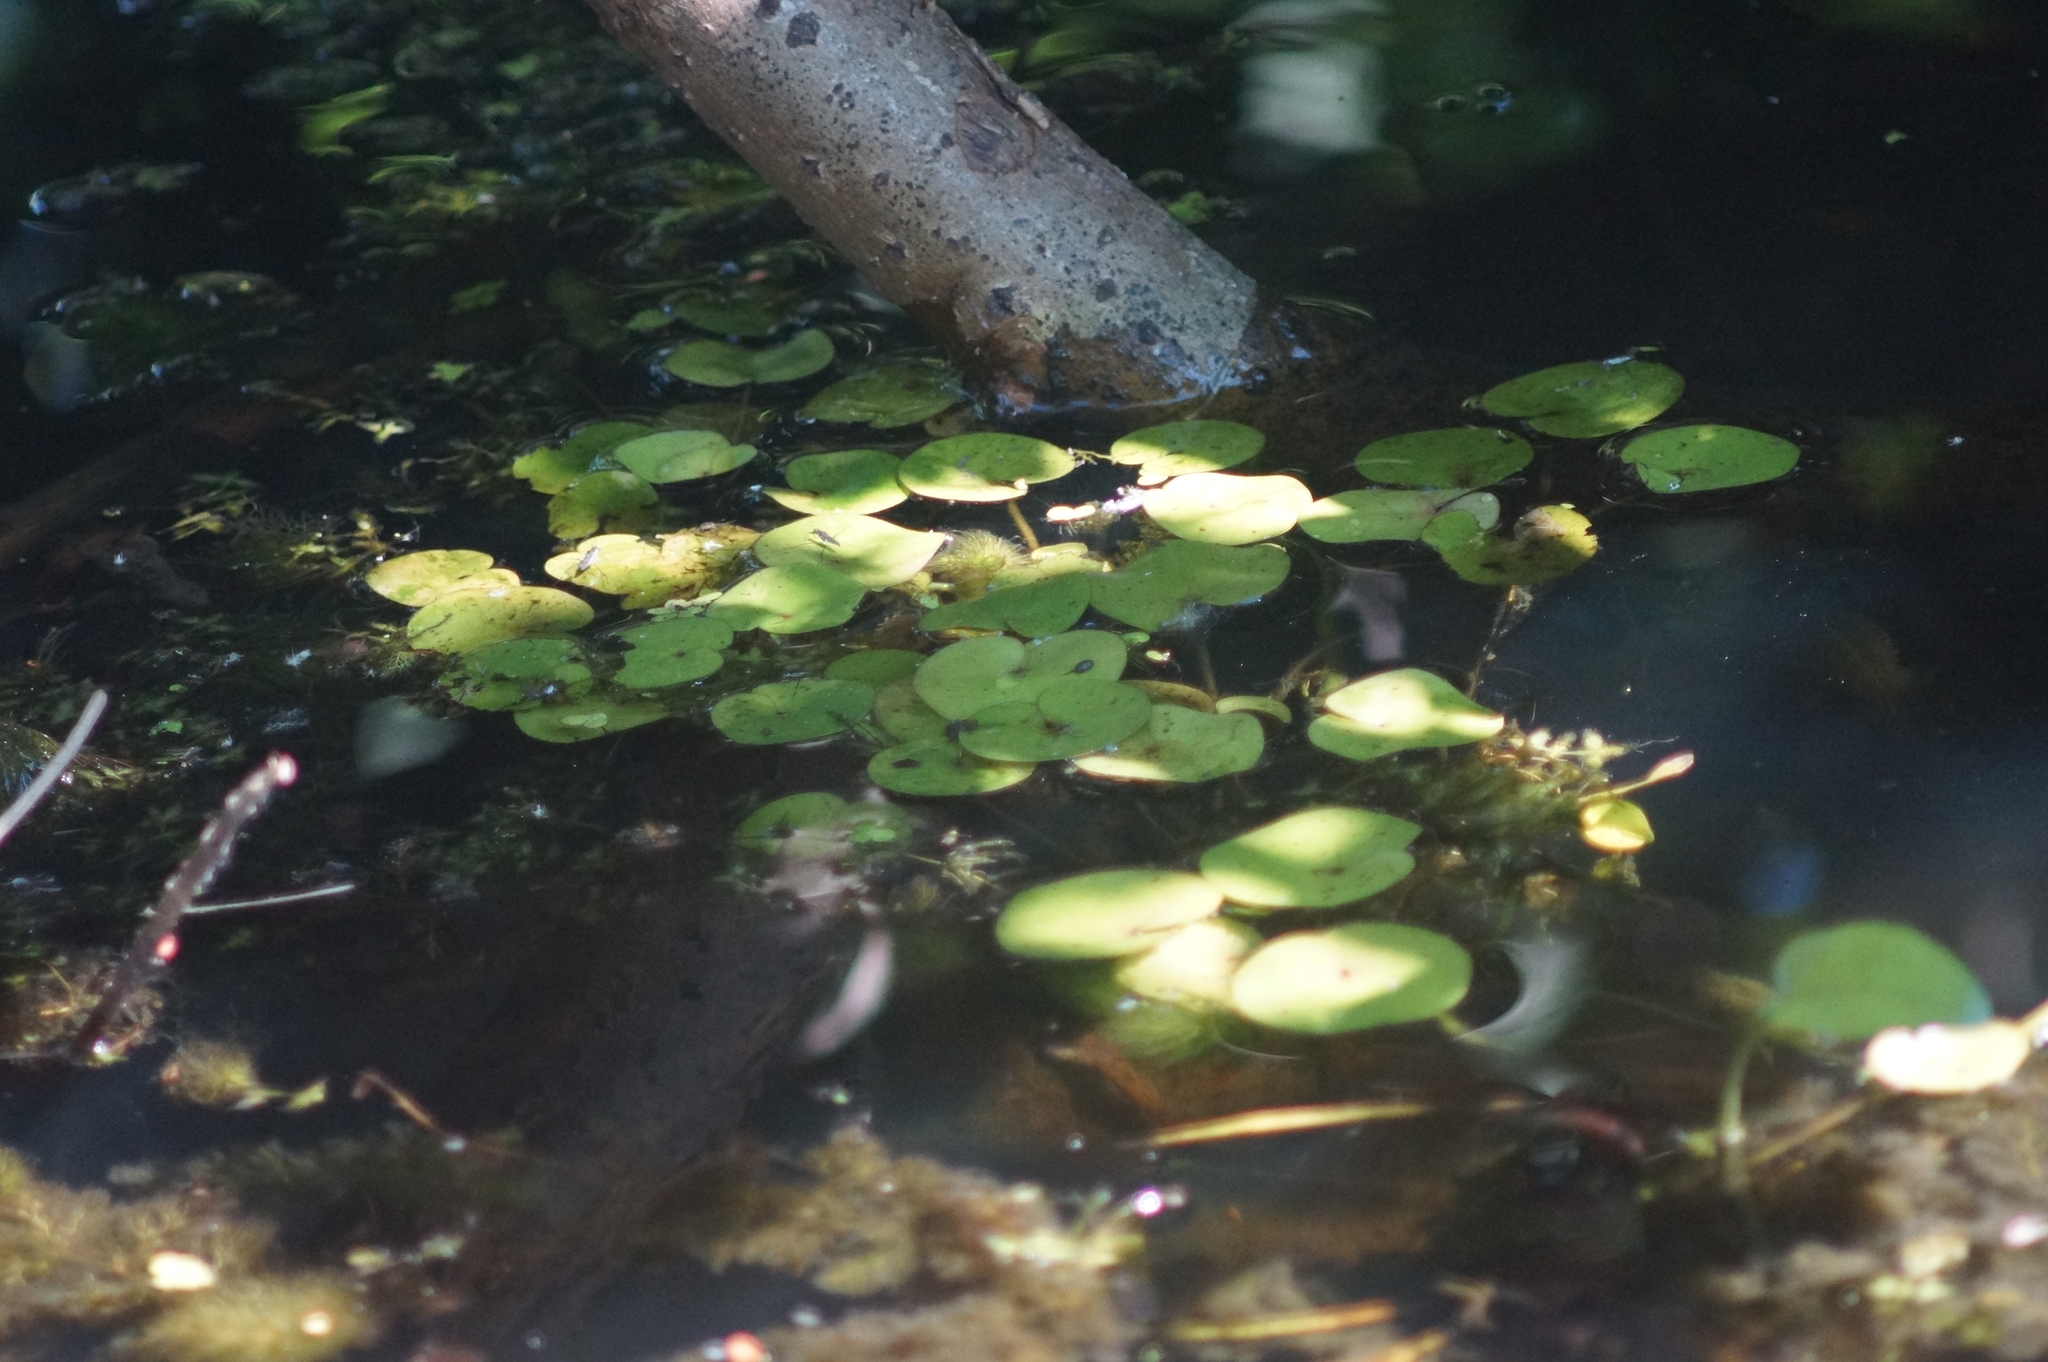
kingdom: Plantae
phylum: Tracheophyta
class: Liliopsida
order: Alismatales
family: Hydrocharitaceae
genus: Hydrocharis
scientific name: Hydrocharis morsus-ranae
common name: Frogbit
